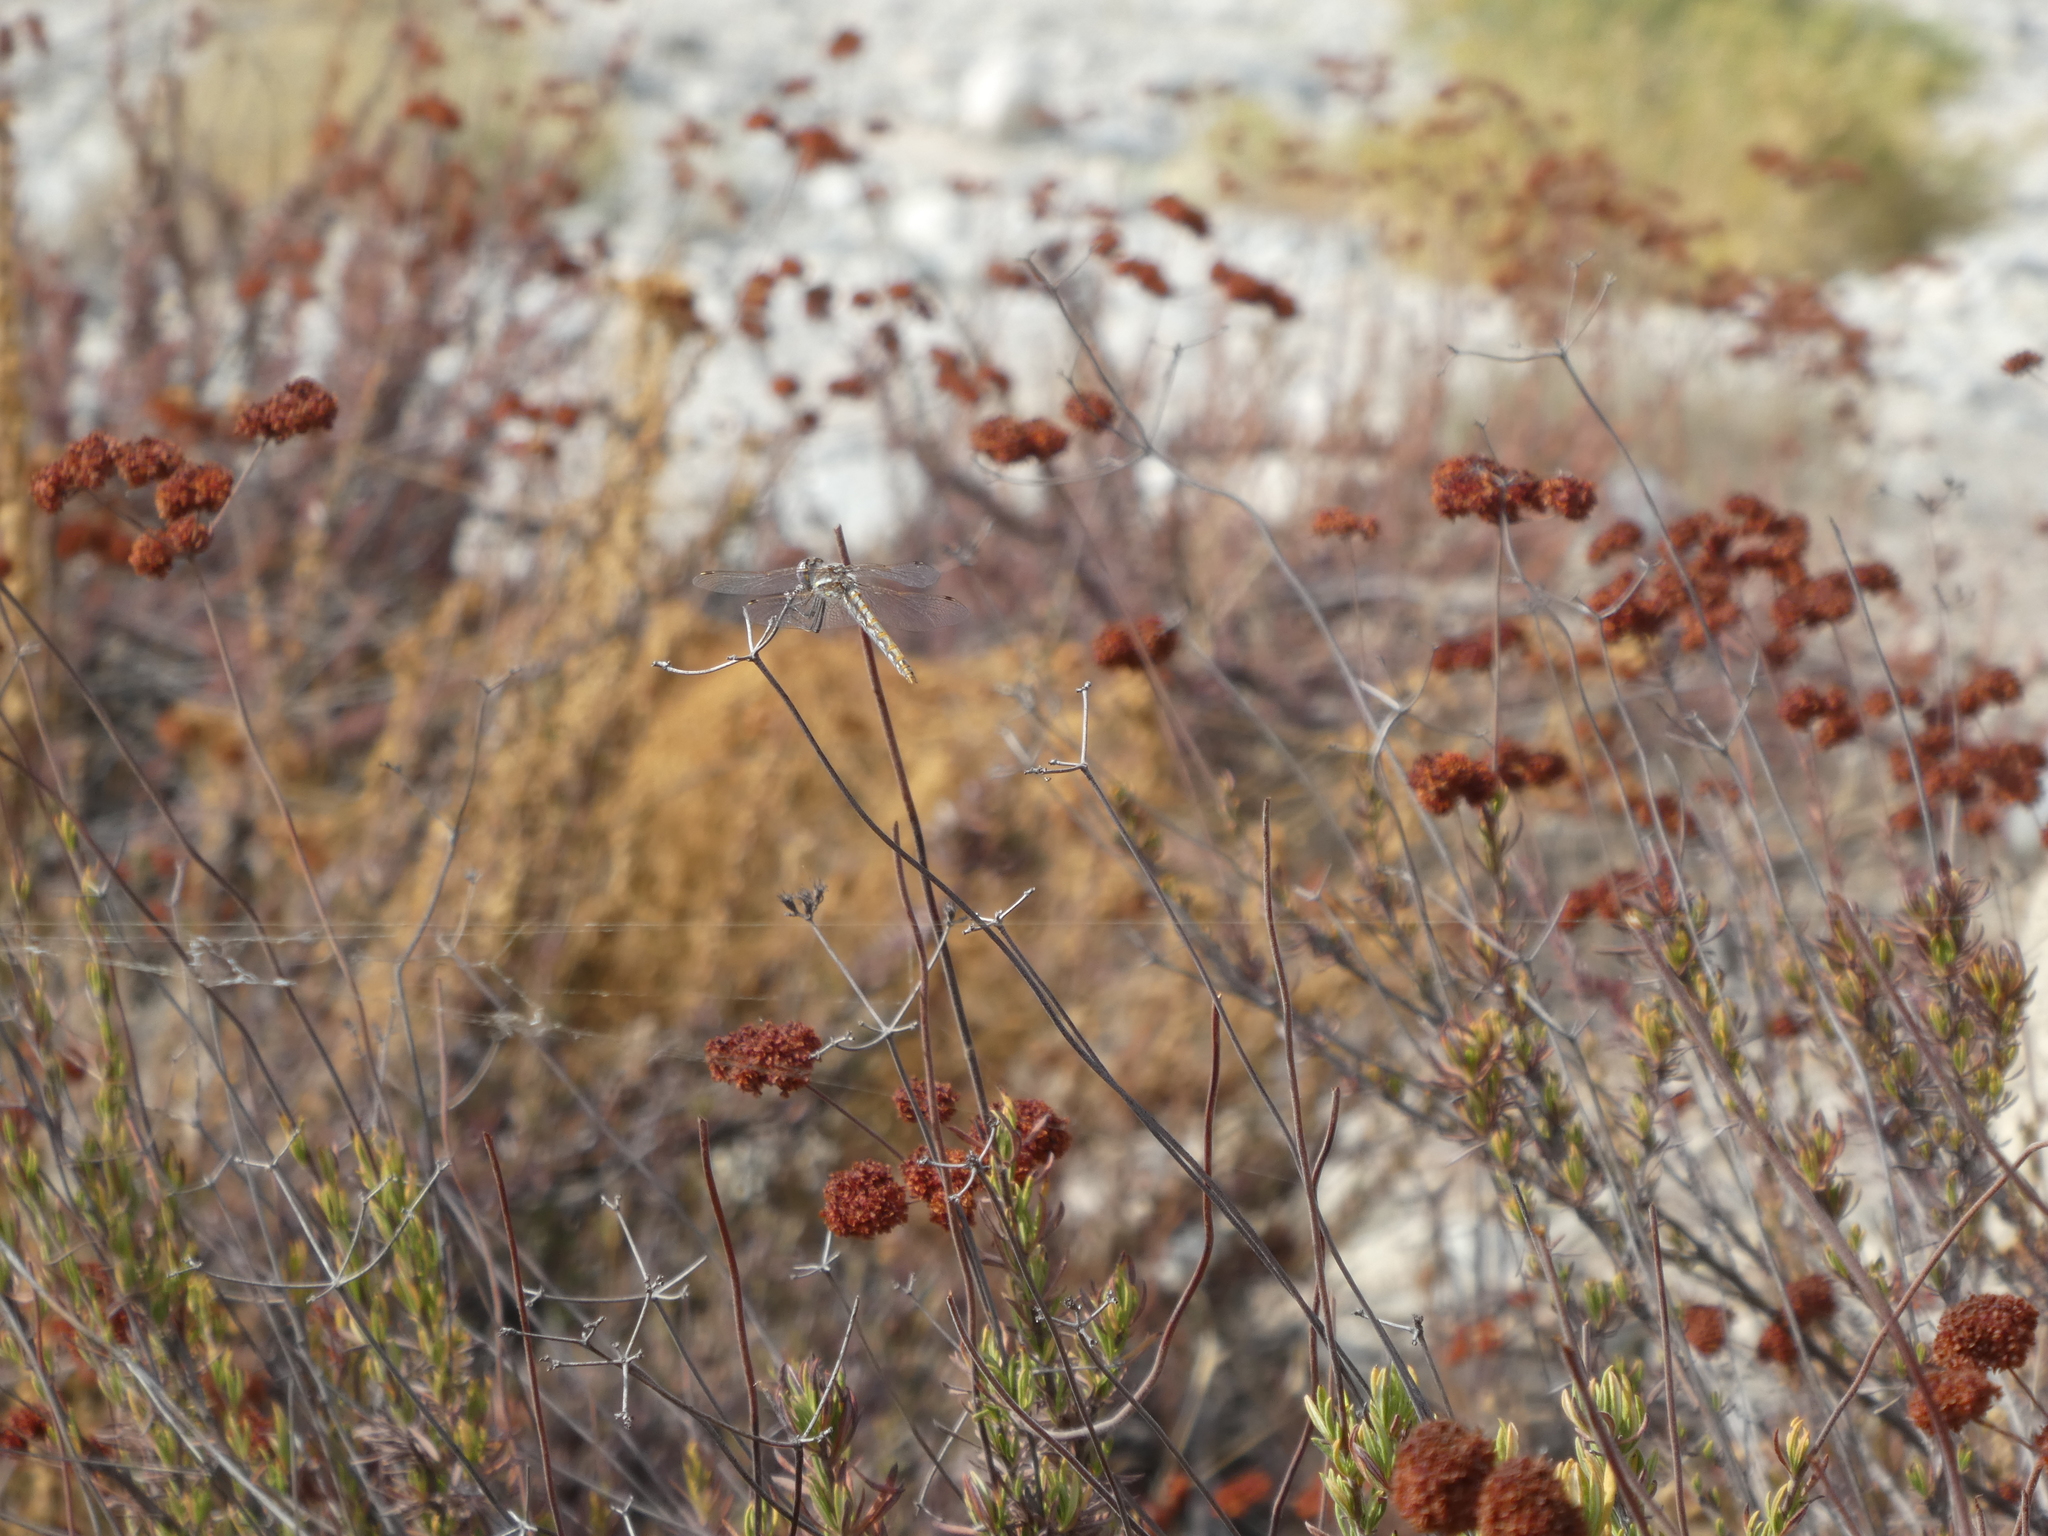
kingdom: Animalia
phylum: Arthropoda
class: Insecta
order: Odonata
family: Libellulidae
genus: Sympetrum
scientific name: Sympetrum corruptum
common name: Variegated meadowhawk
